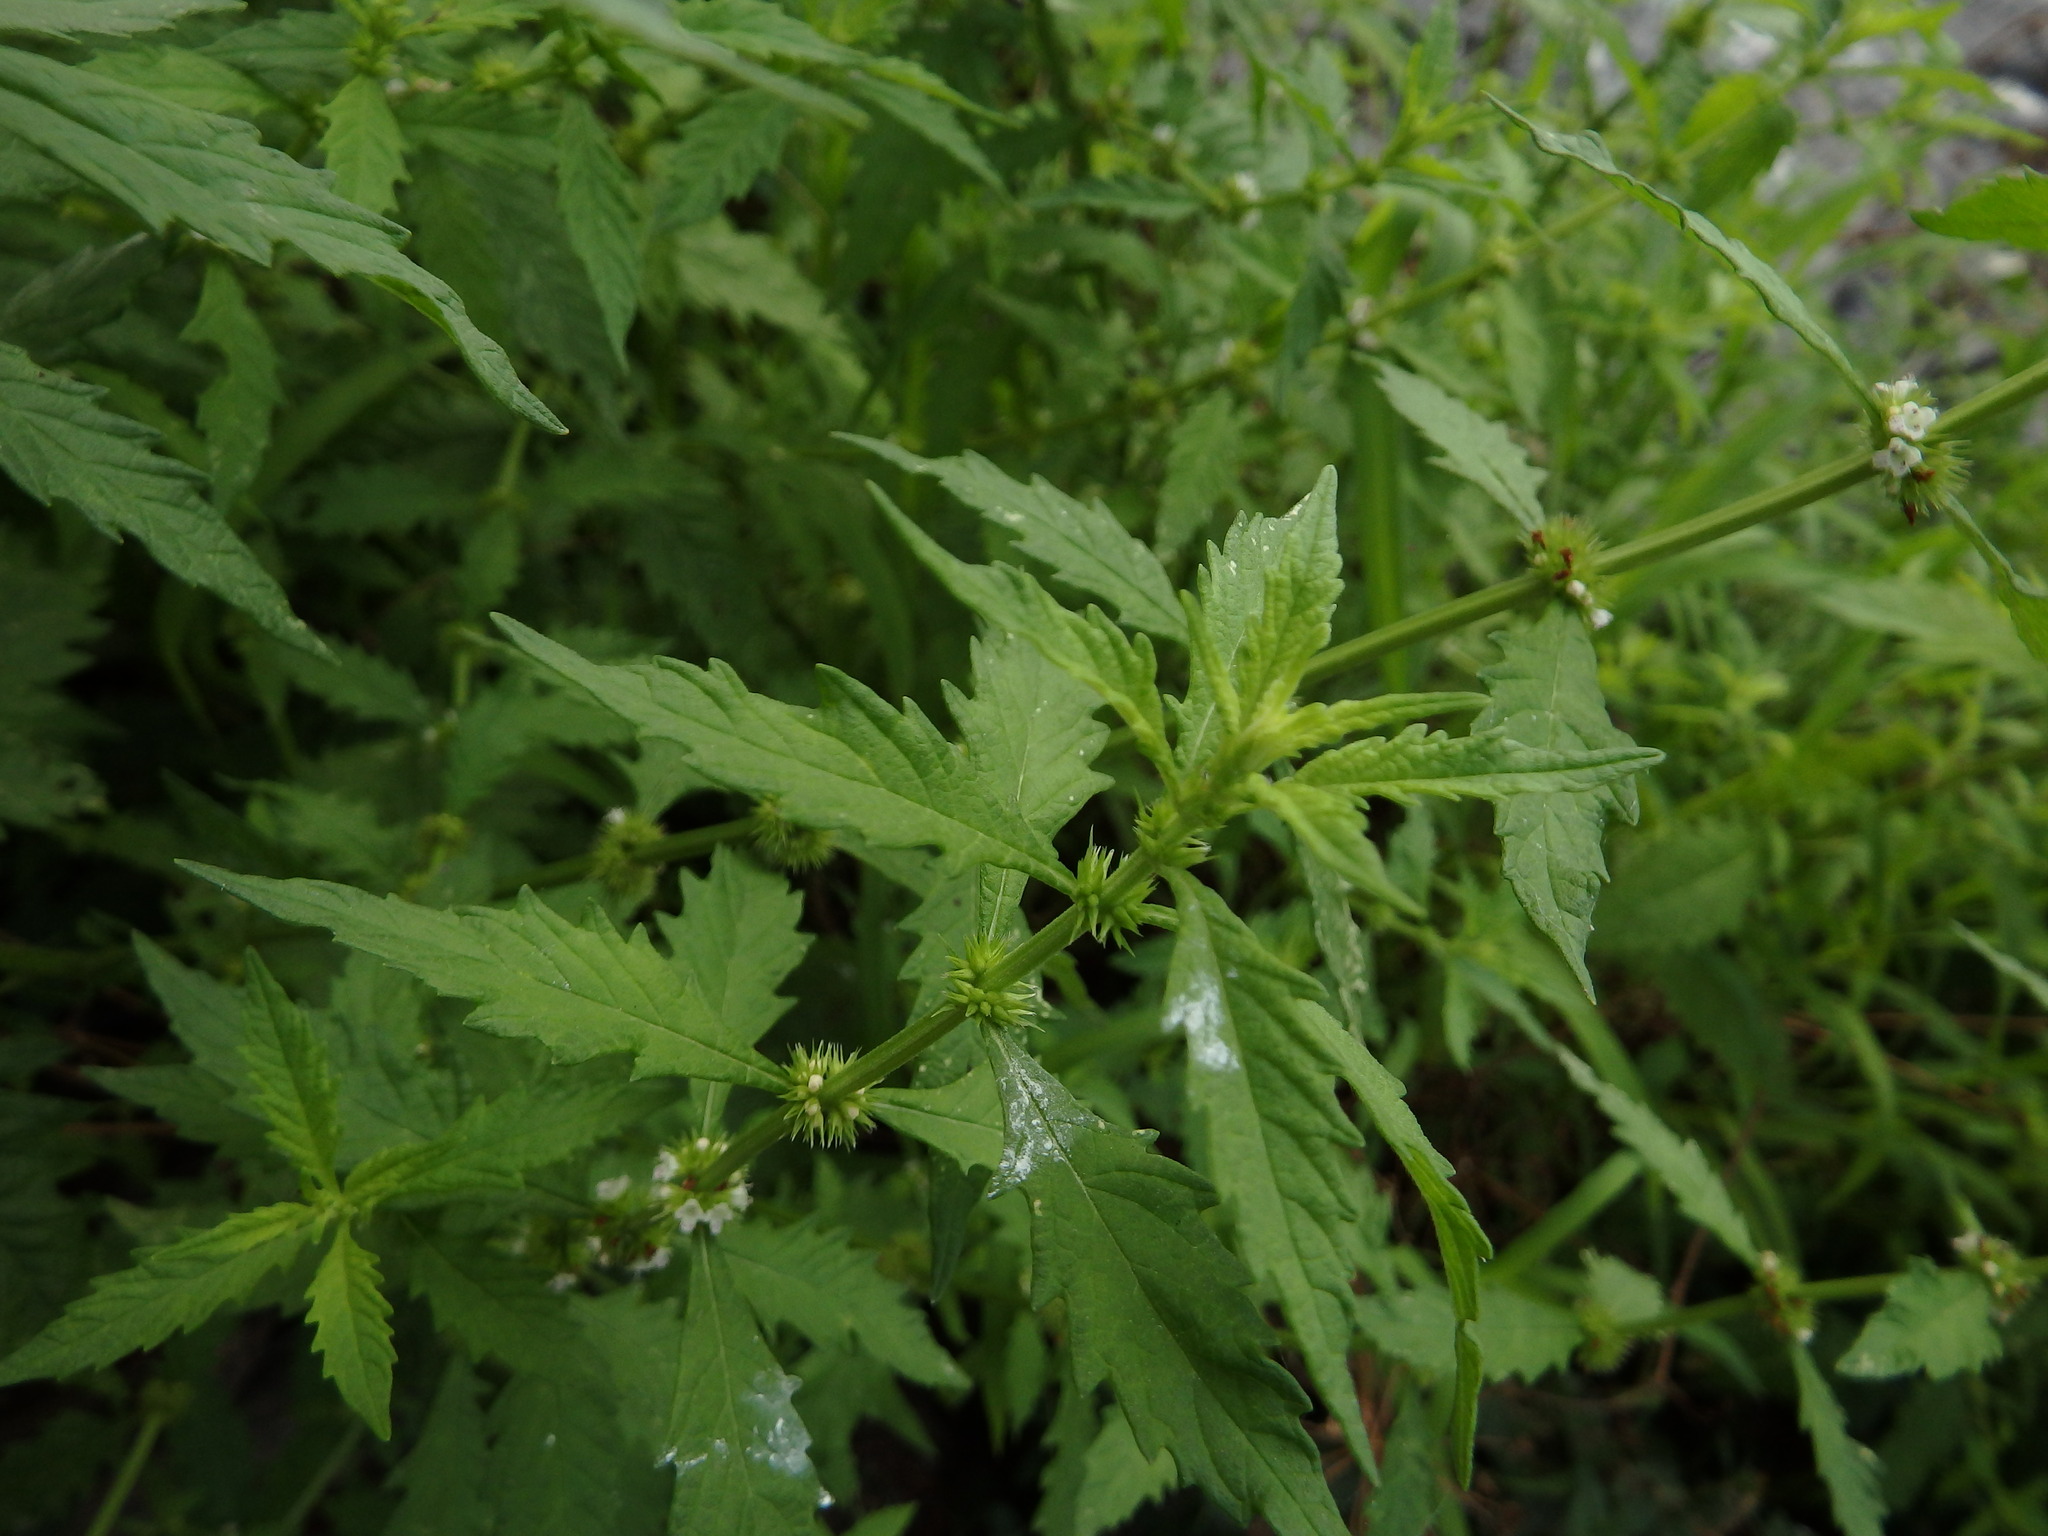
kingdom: Plantae
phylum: Tracheophyta
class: Magnoliopsida
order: Lamiales
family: Lamiaceae
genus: Lycopus
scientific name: Lycopus europaeus
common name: European bugleweed
